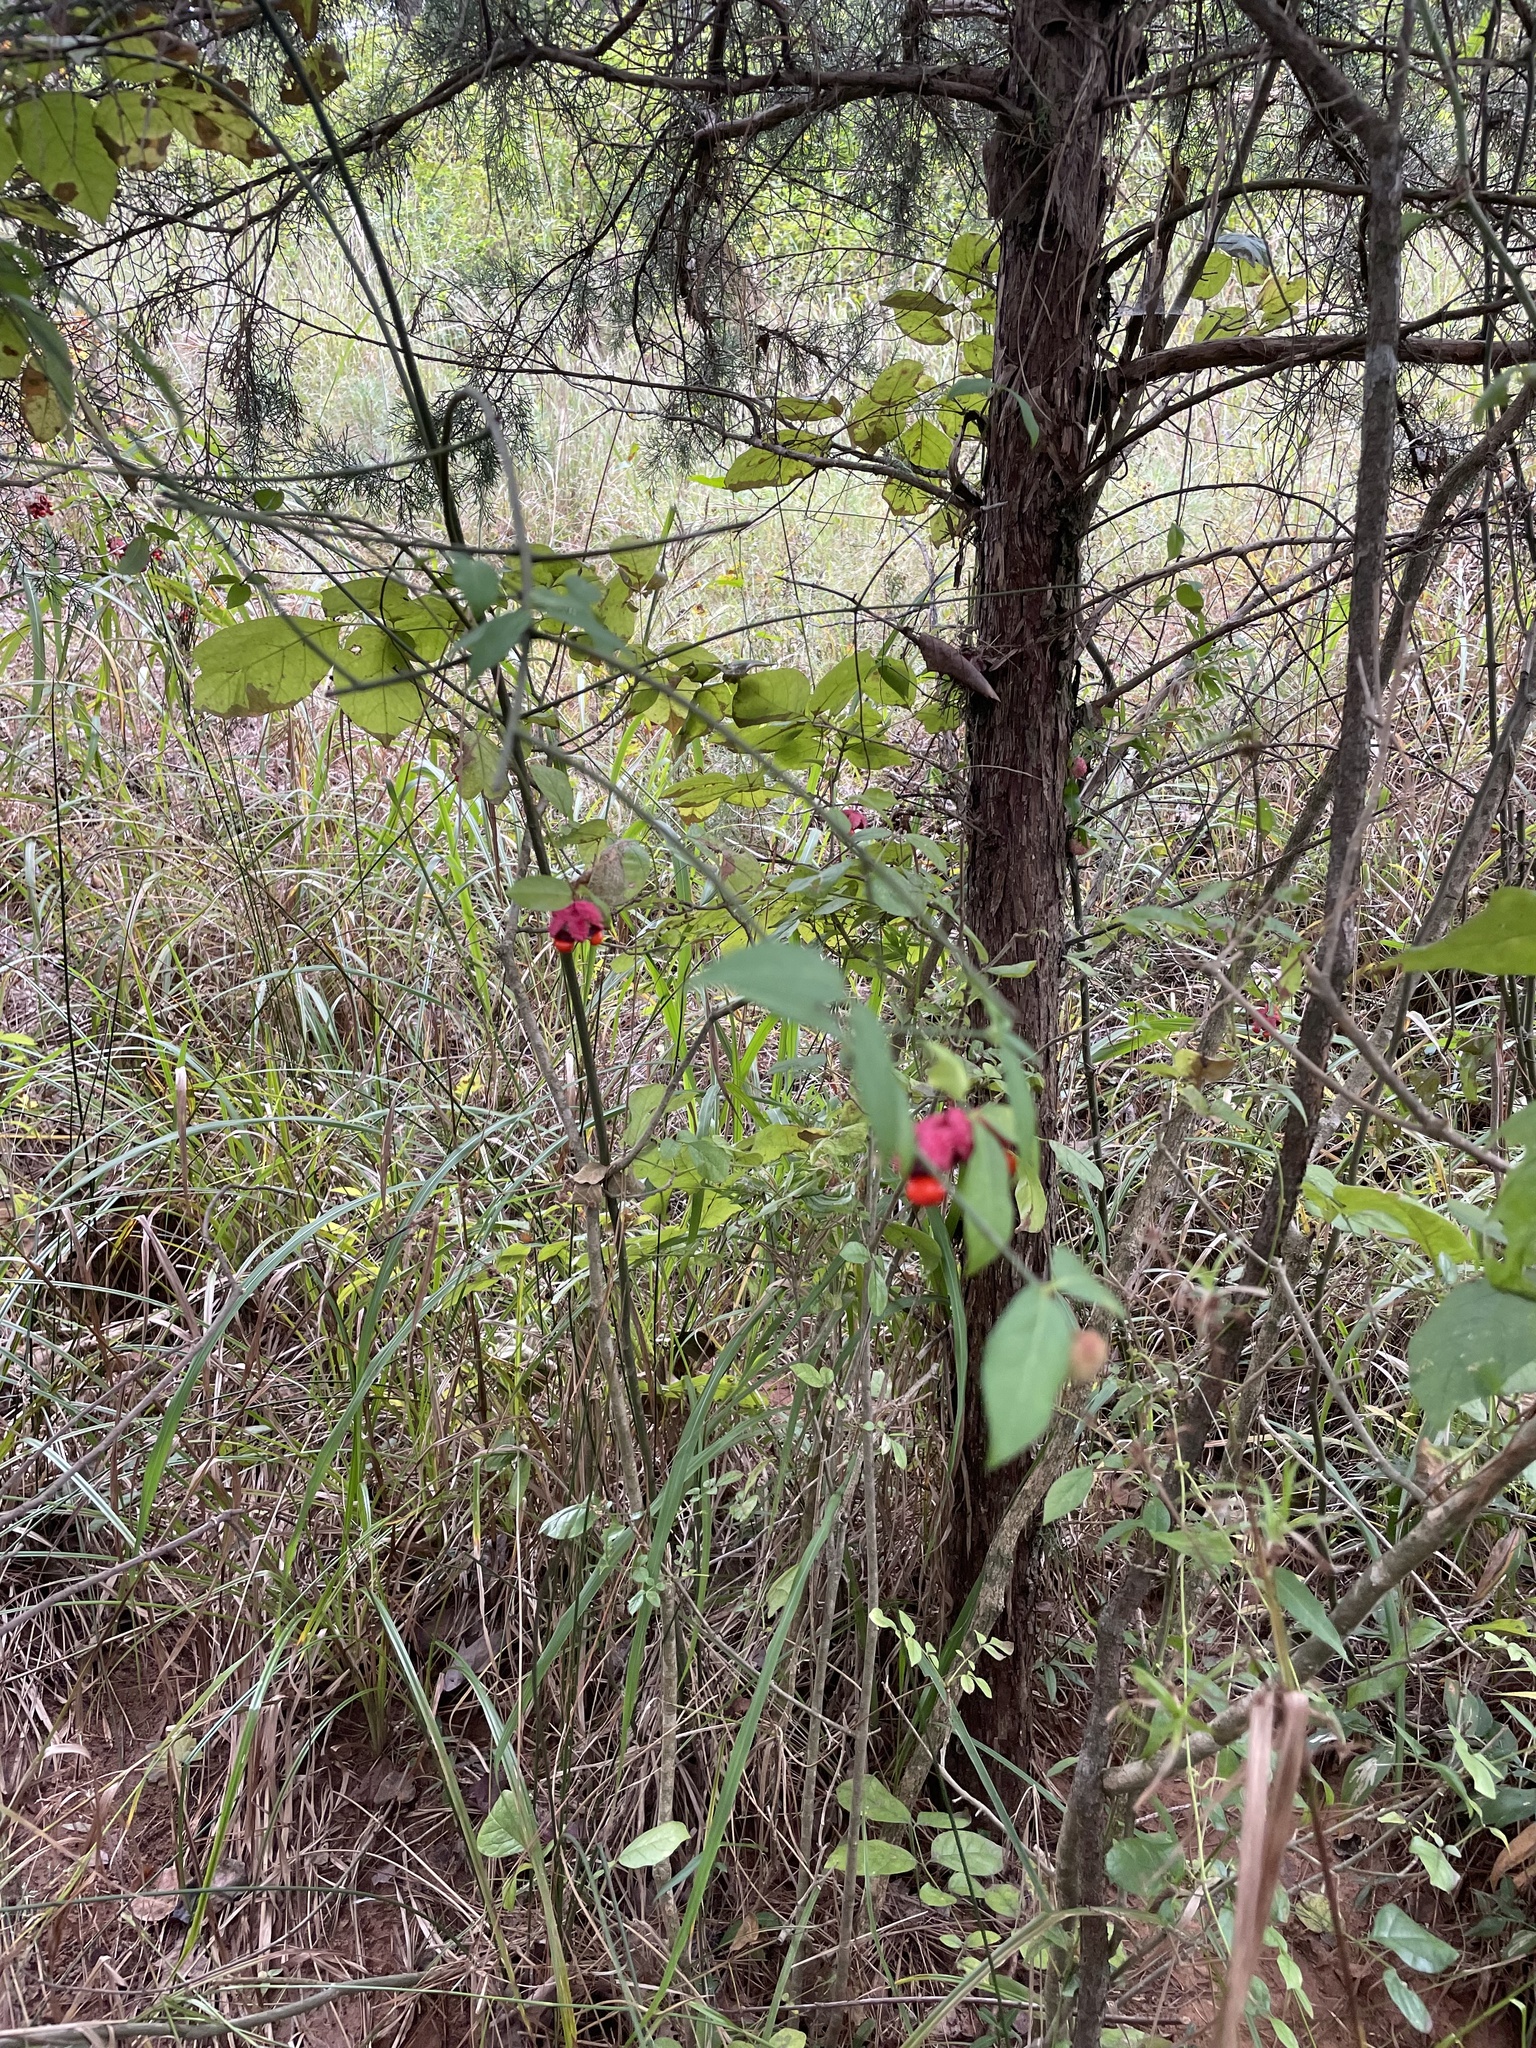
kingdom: Plantae
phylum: Tracheophyta
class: Magnoliopsida
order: Celastrales
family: Celastraceae
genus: Euonymus
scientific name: Euonymus americanus
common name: Bursting-heart
